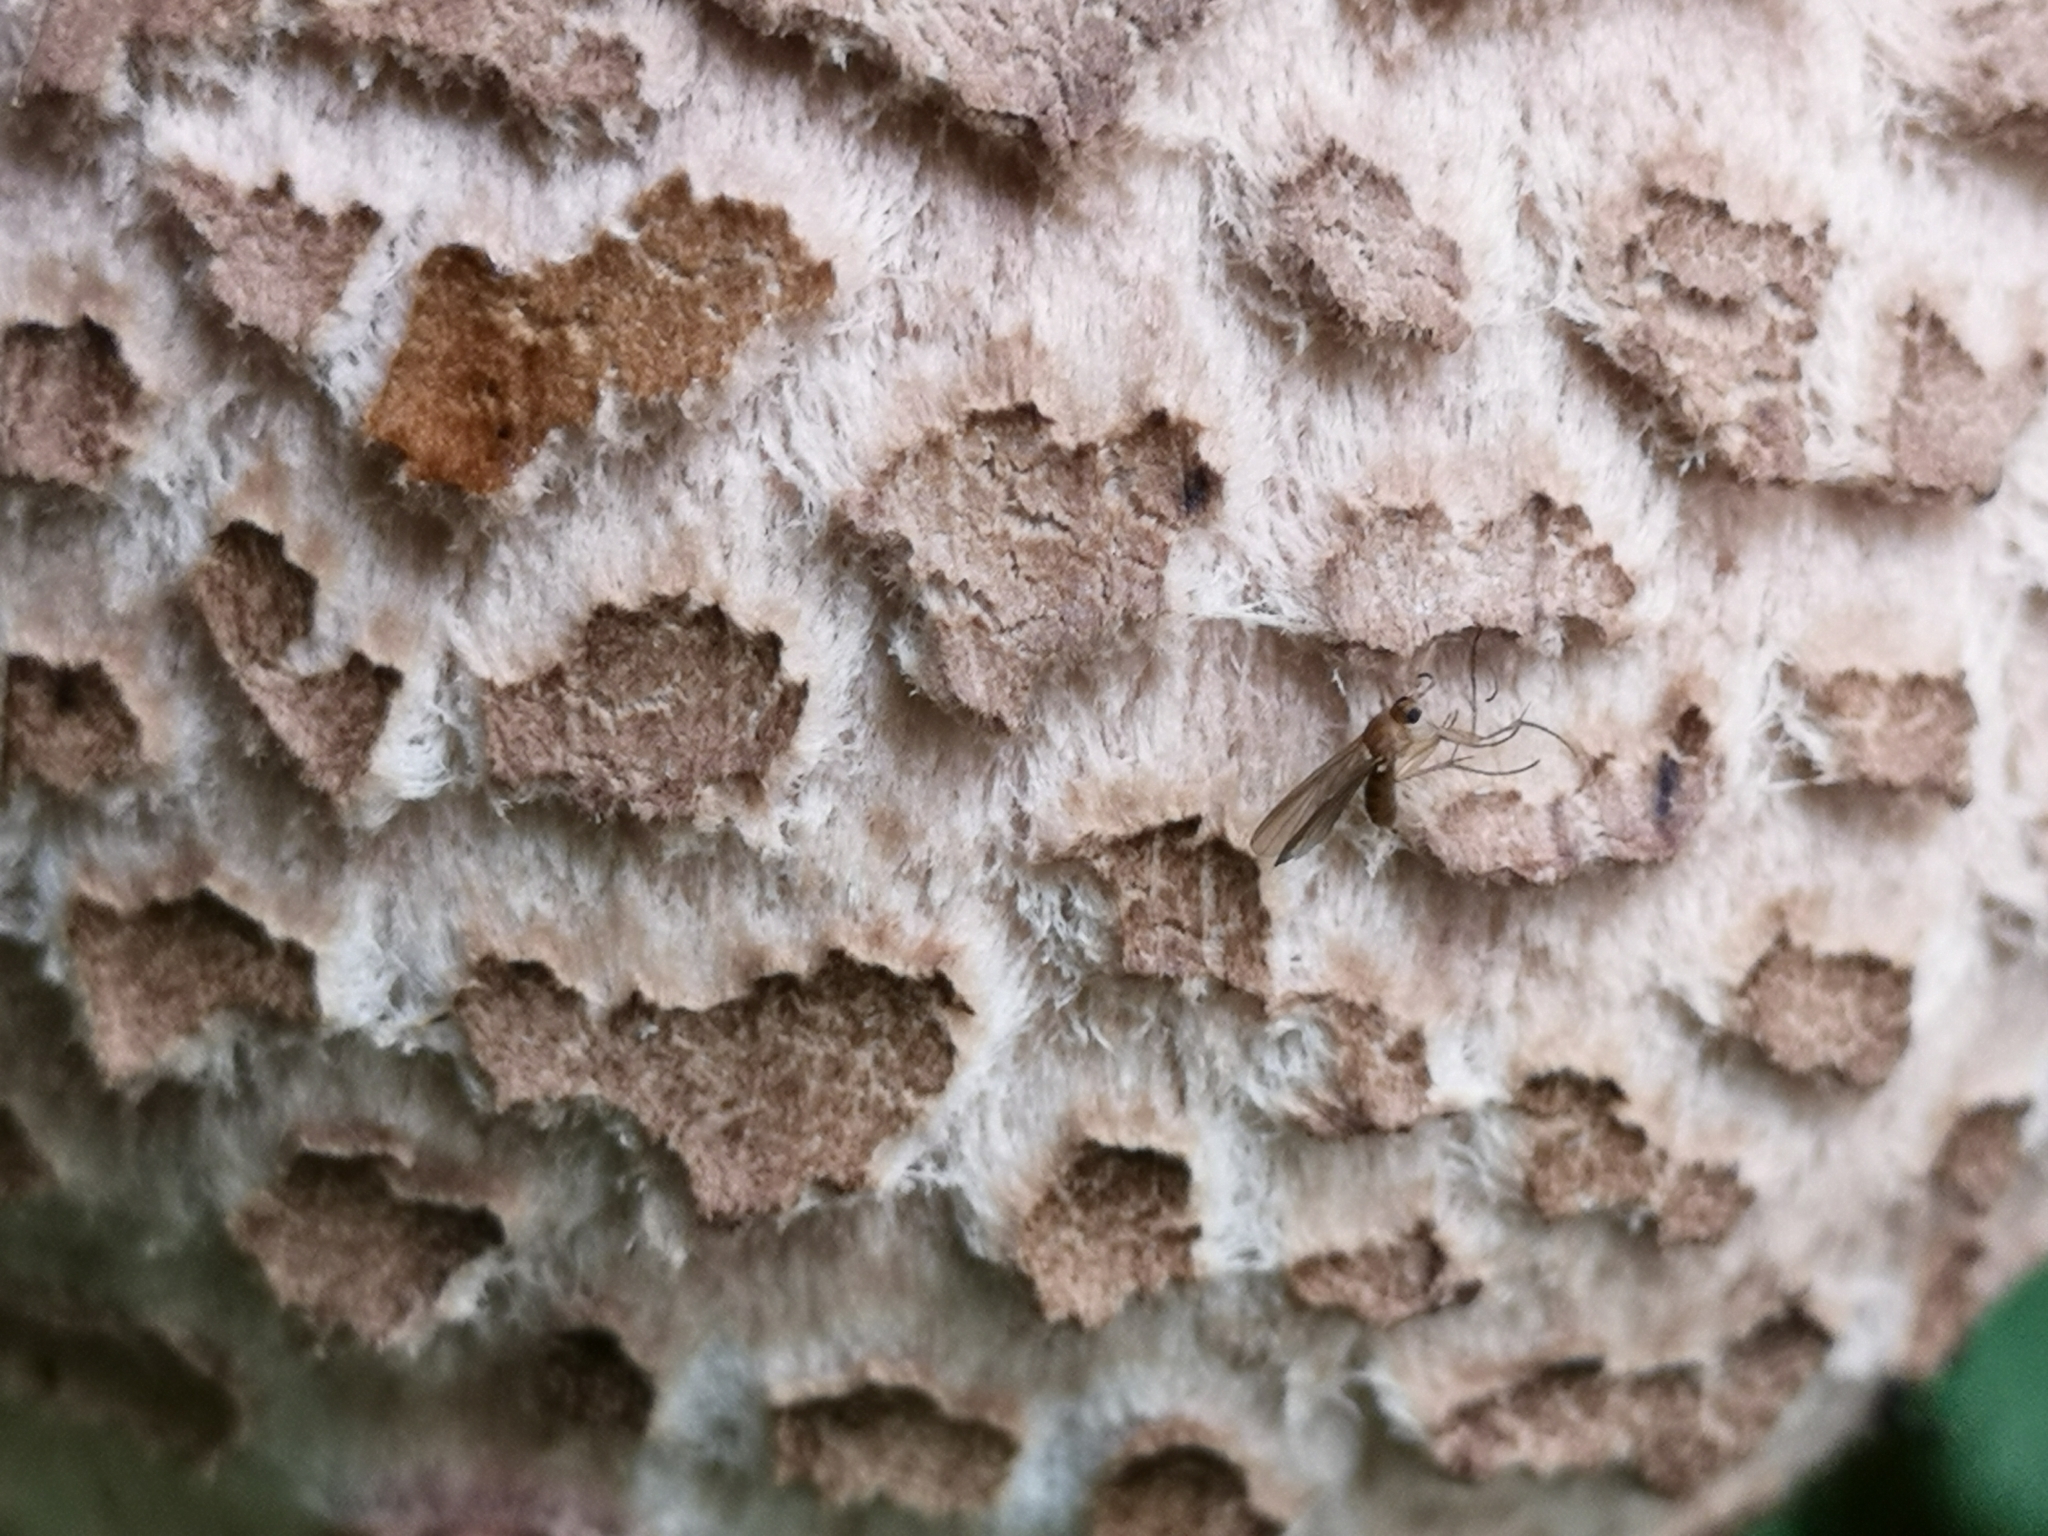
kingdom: Fungi
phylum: Basidiomycota
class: Agaricomycetes
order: Agaricales
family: Agaricaceae
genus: Macrolepiota
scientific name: Macrolepiota procera
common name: Parasol
